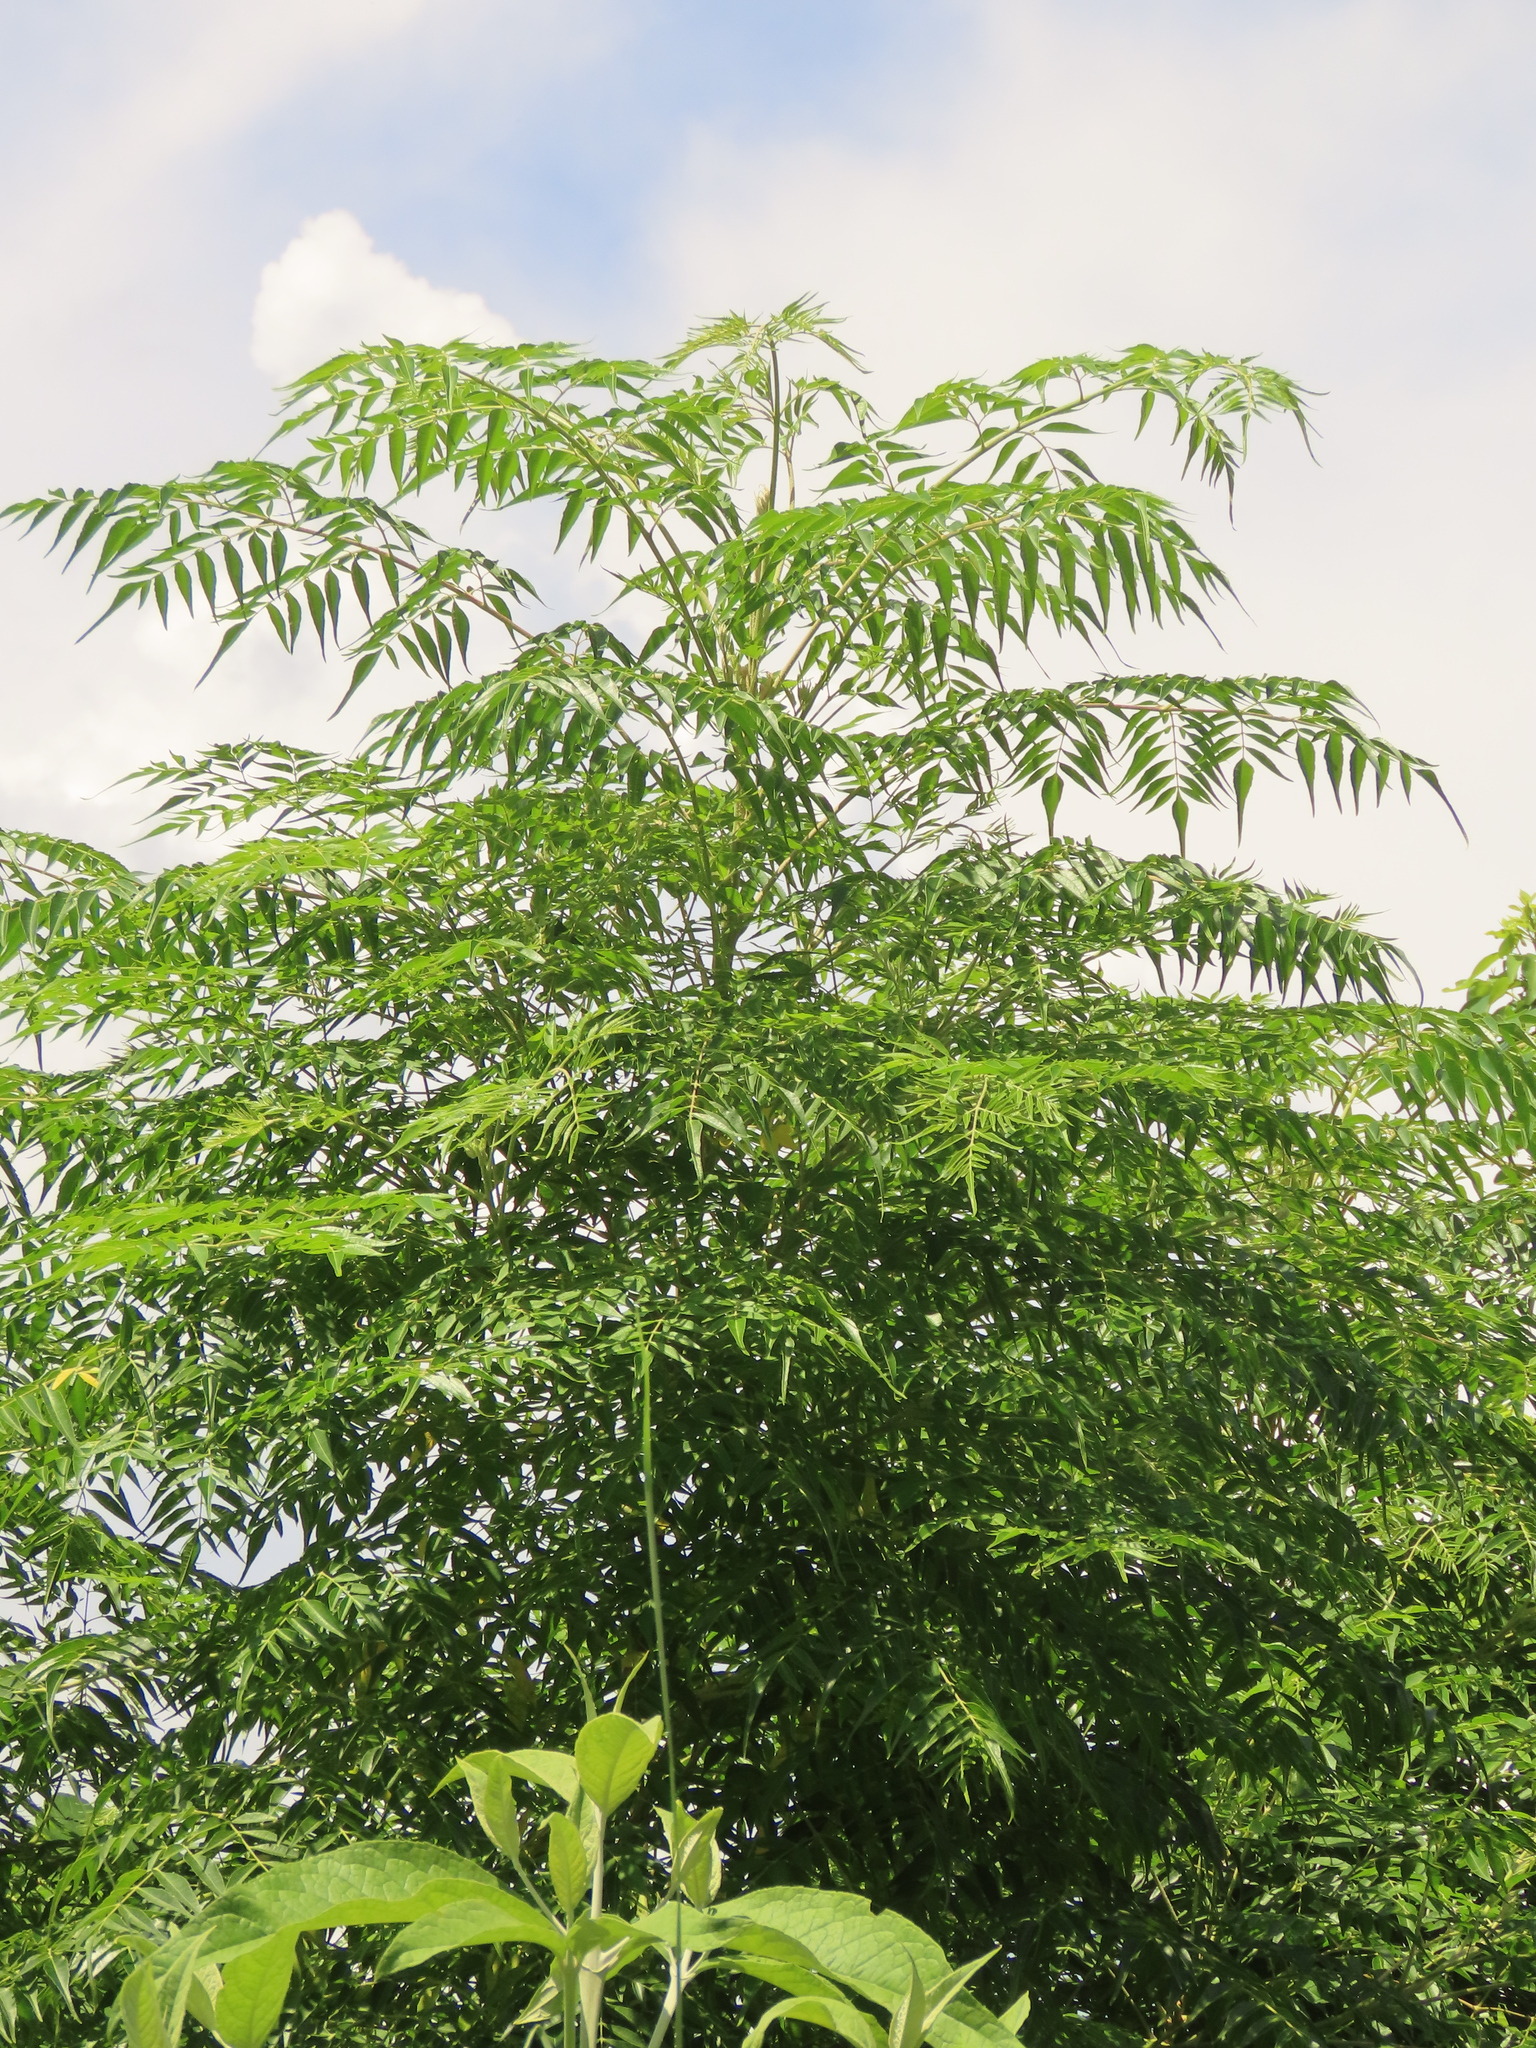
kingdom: Plantae
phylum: Tracheophyta
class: Magnoliopsida
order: Sapindales
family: Meliaceae
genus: Melia
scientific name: Melia azedarach
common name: Chinaberrytree
